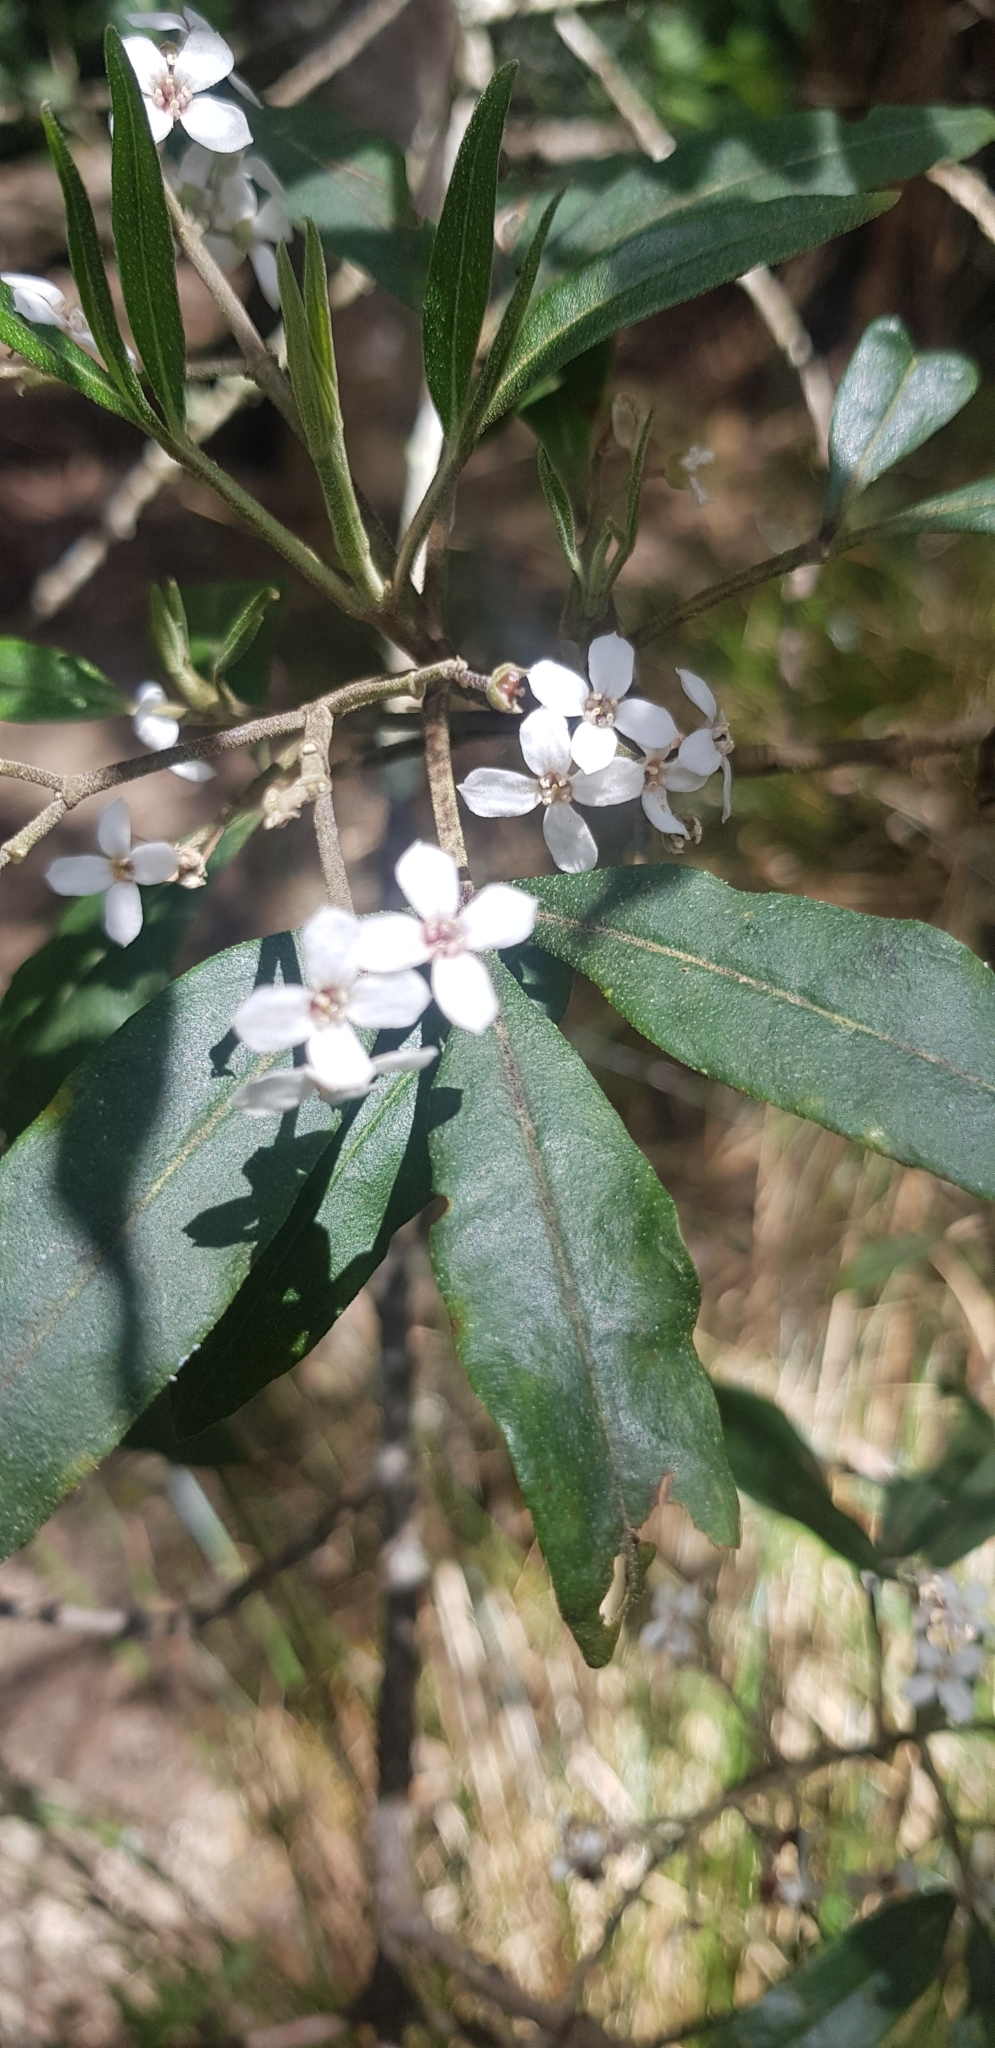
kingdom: Plantae
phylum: Tracheophyta
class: Magnoliopsida
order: Sapindales
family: Rutaceae
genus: Zieria
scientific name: Zieria arborescens
